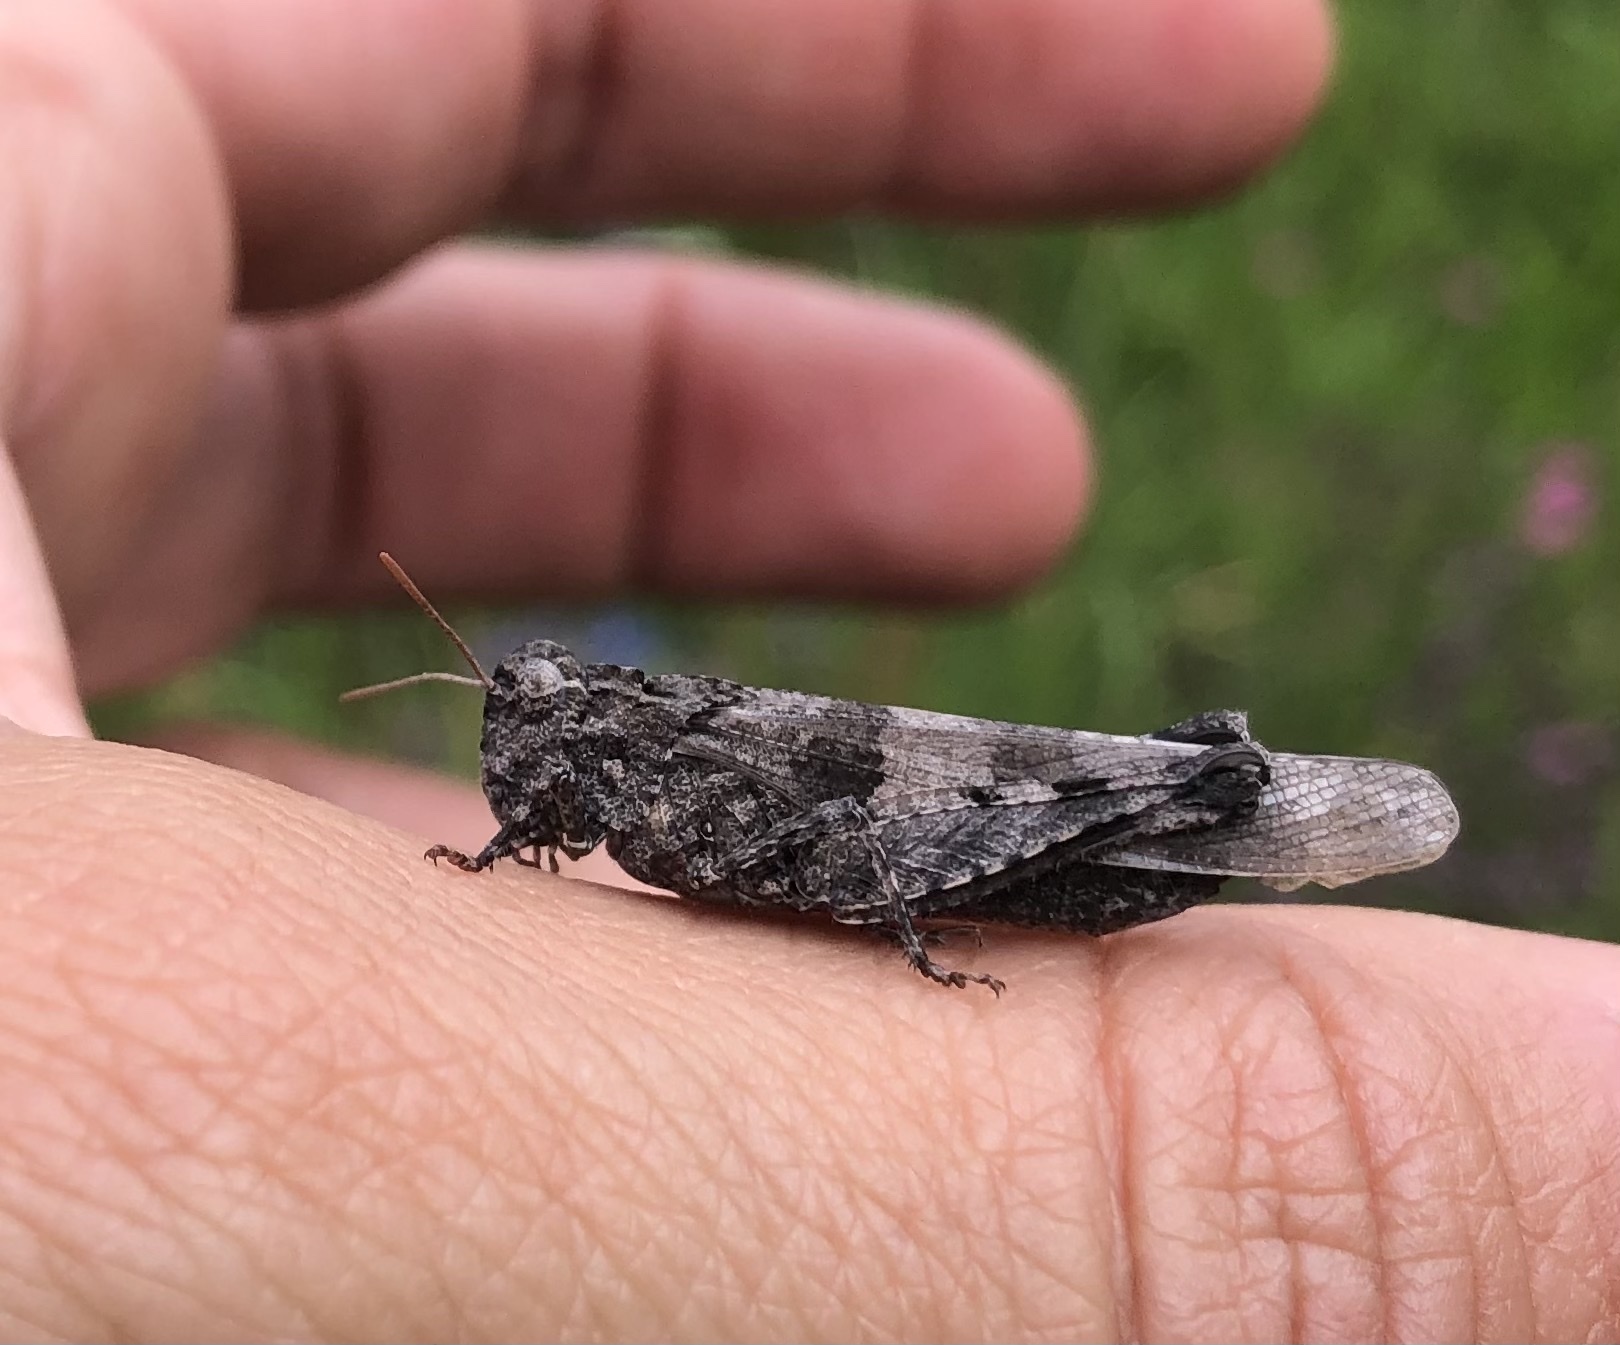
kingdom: Animalia
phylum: Arthropoda
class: Insecta
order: Orthoptera
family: Acrididae
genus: Oedipoda
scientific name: Oedipoda caerulescens
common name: Blue-winged grasshopper
